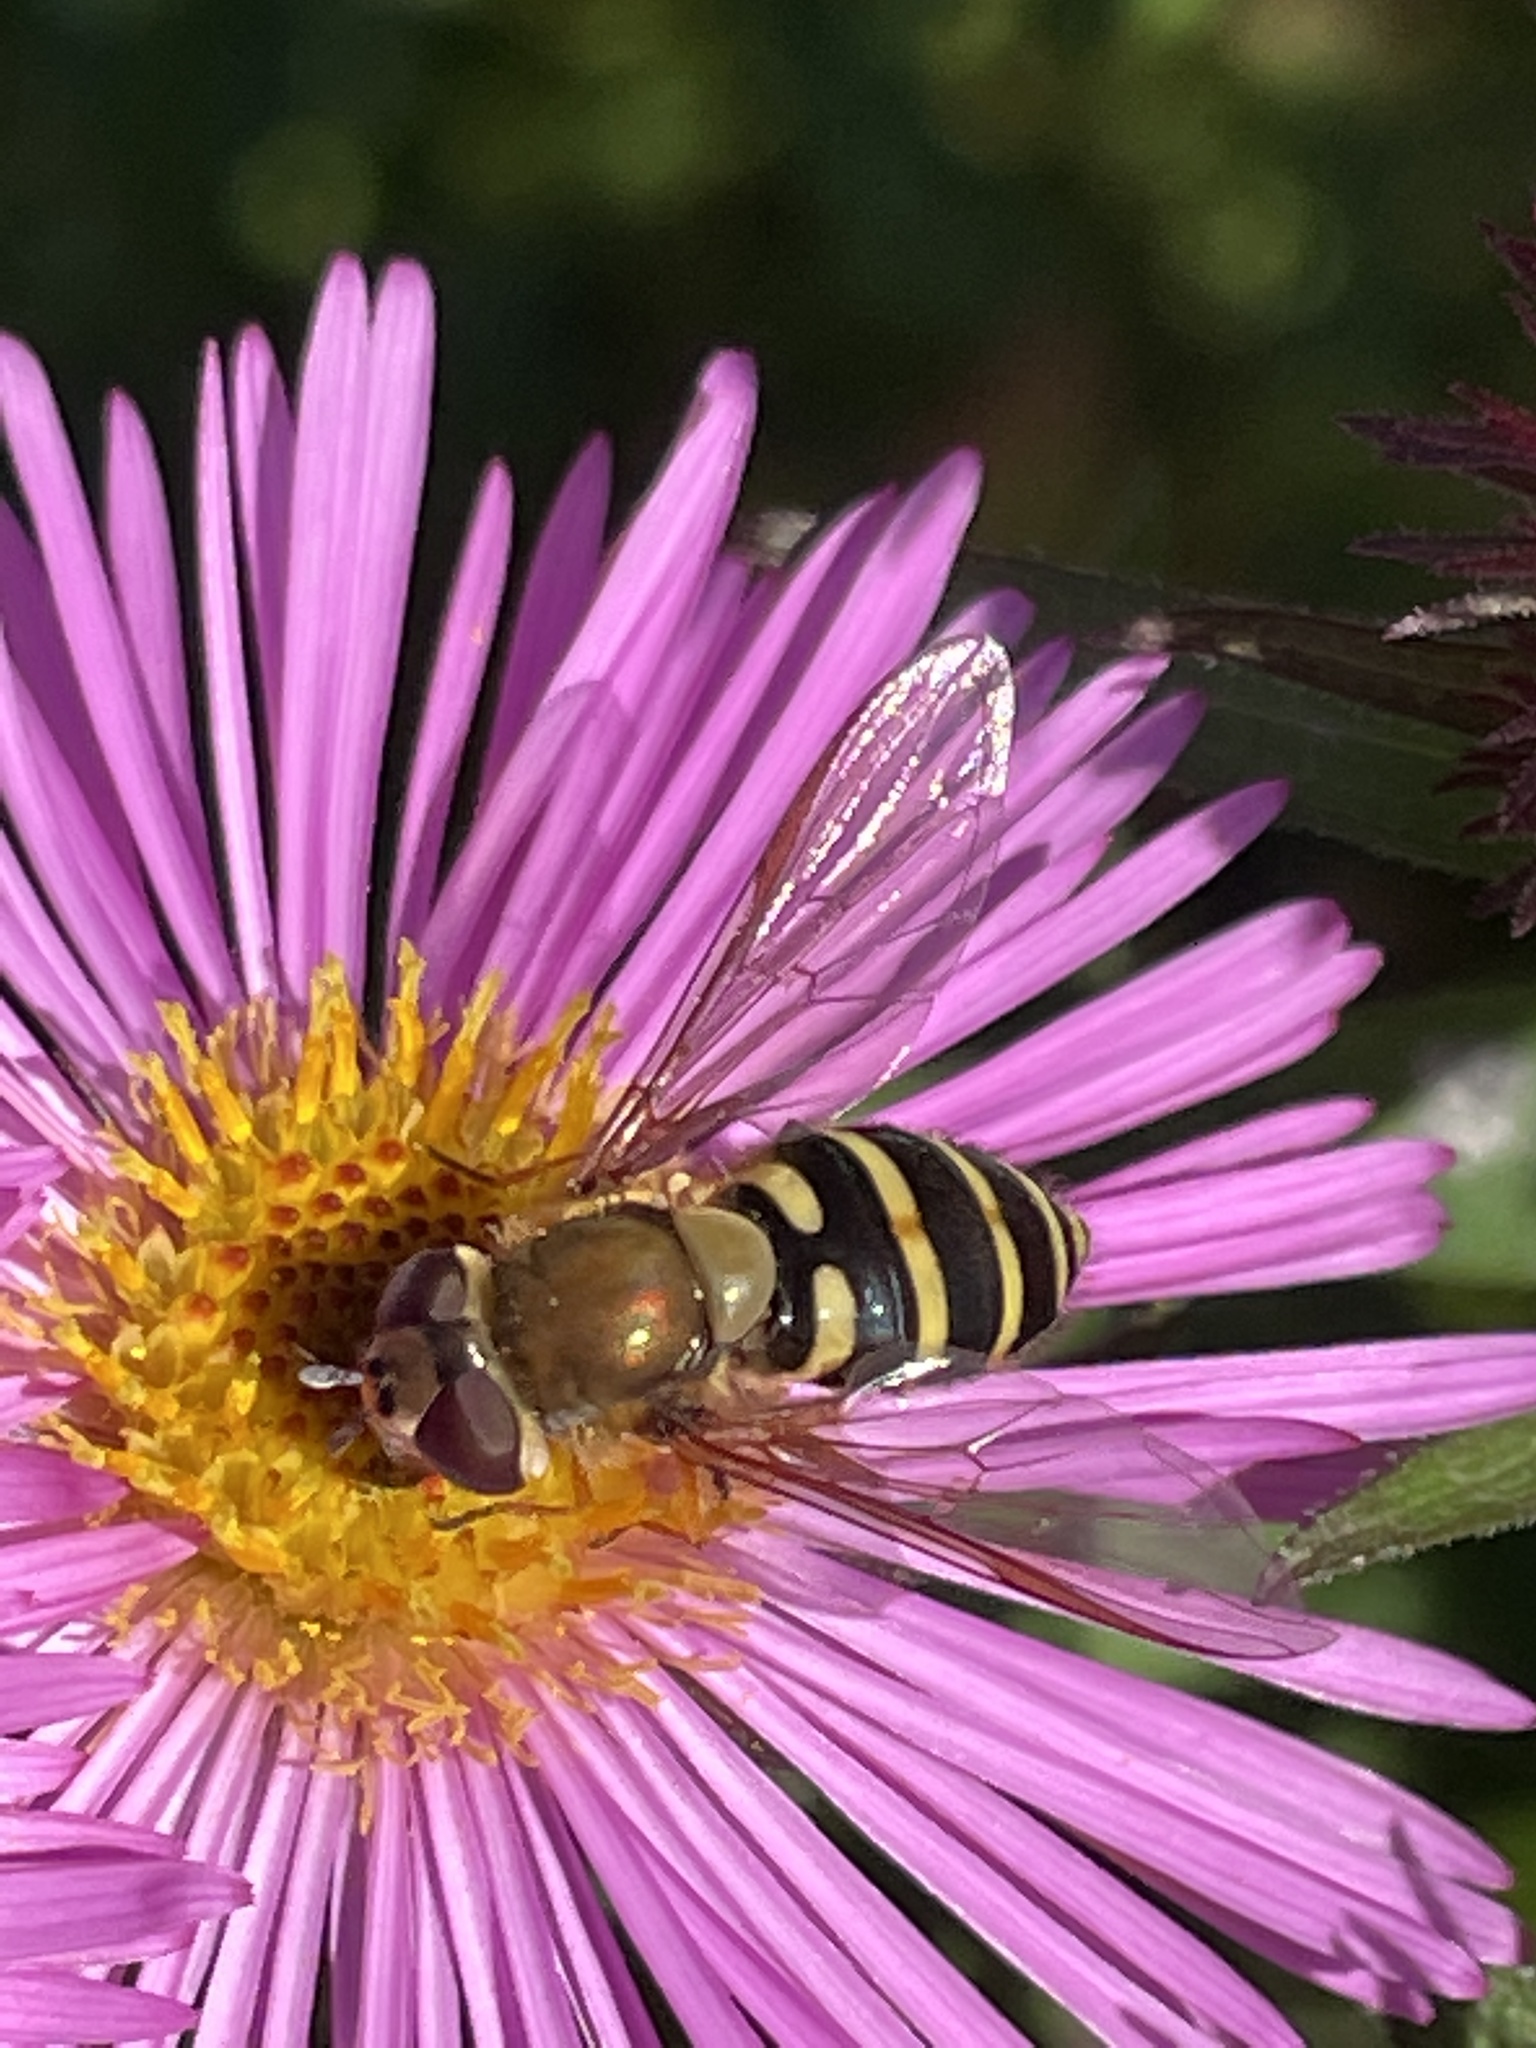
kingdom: Animalia
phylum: Arthropoda
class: Insecta
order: Diptera
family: Syrphidae
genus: Syrphus
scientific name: Syrphus
